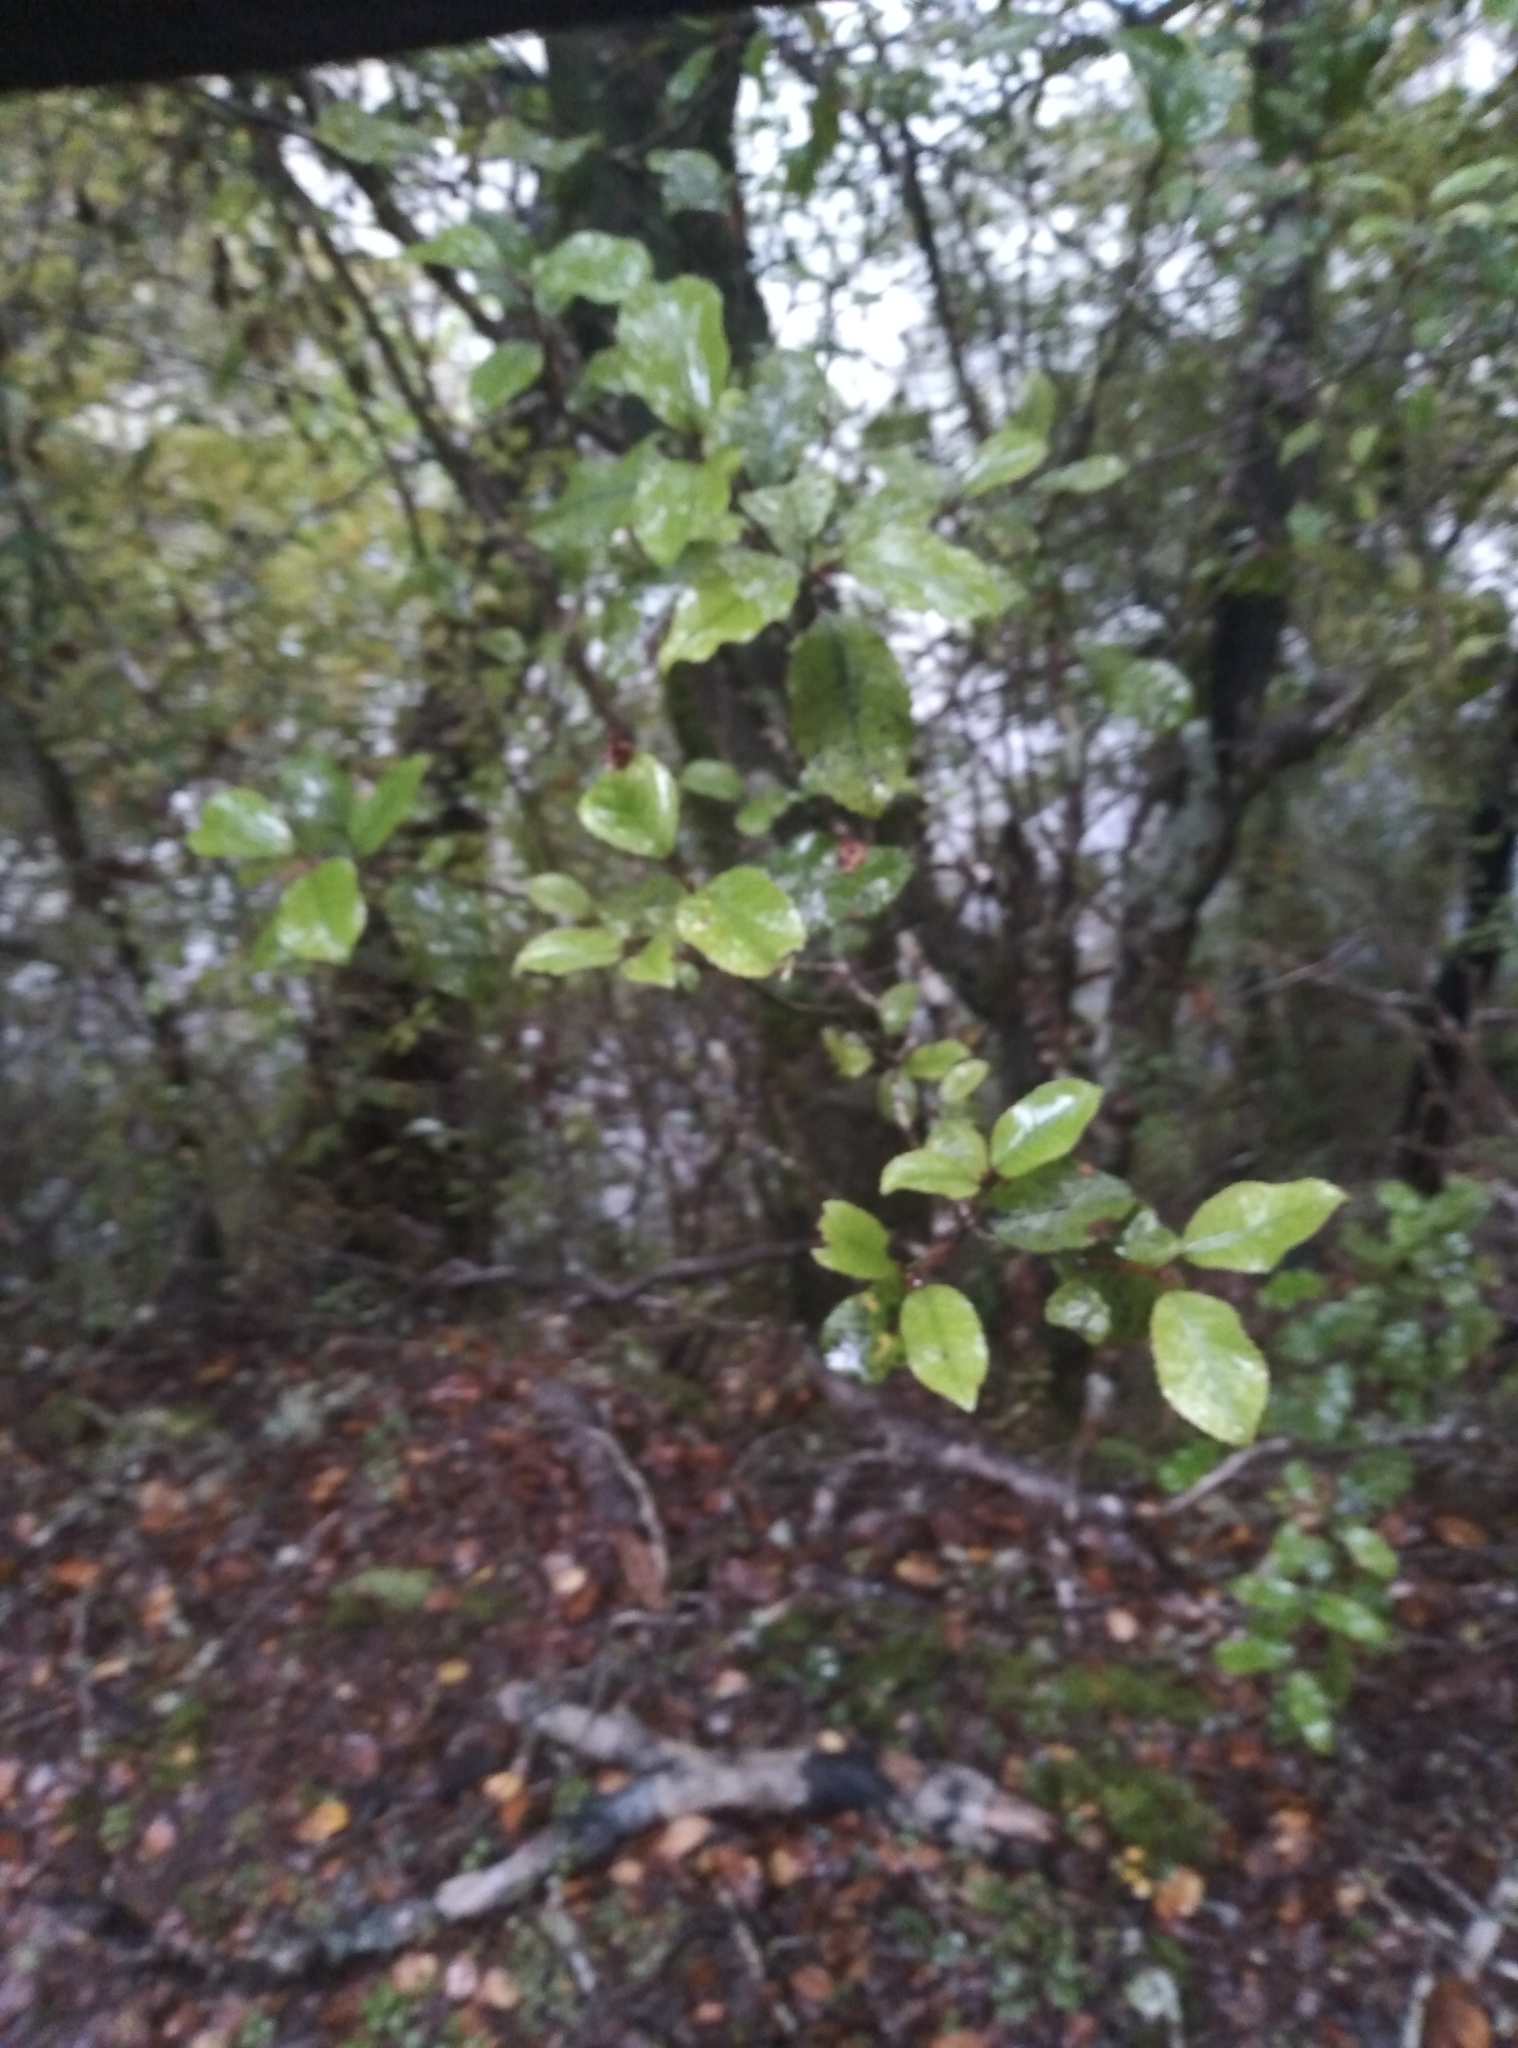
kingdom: Plantae
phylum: Tracheophyta
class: Magnoliopsida
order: Oxalidales
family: Cunoniaceae
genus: Pterophylla
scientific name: Pterophylla racemosa
